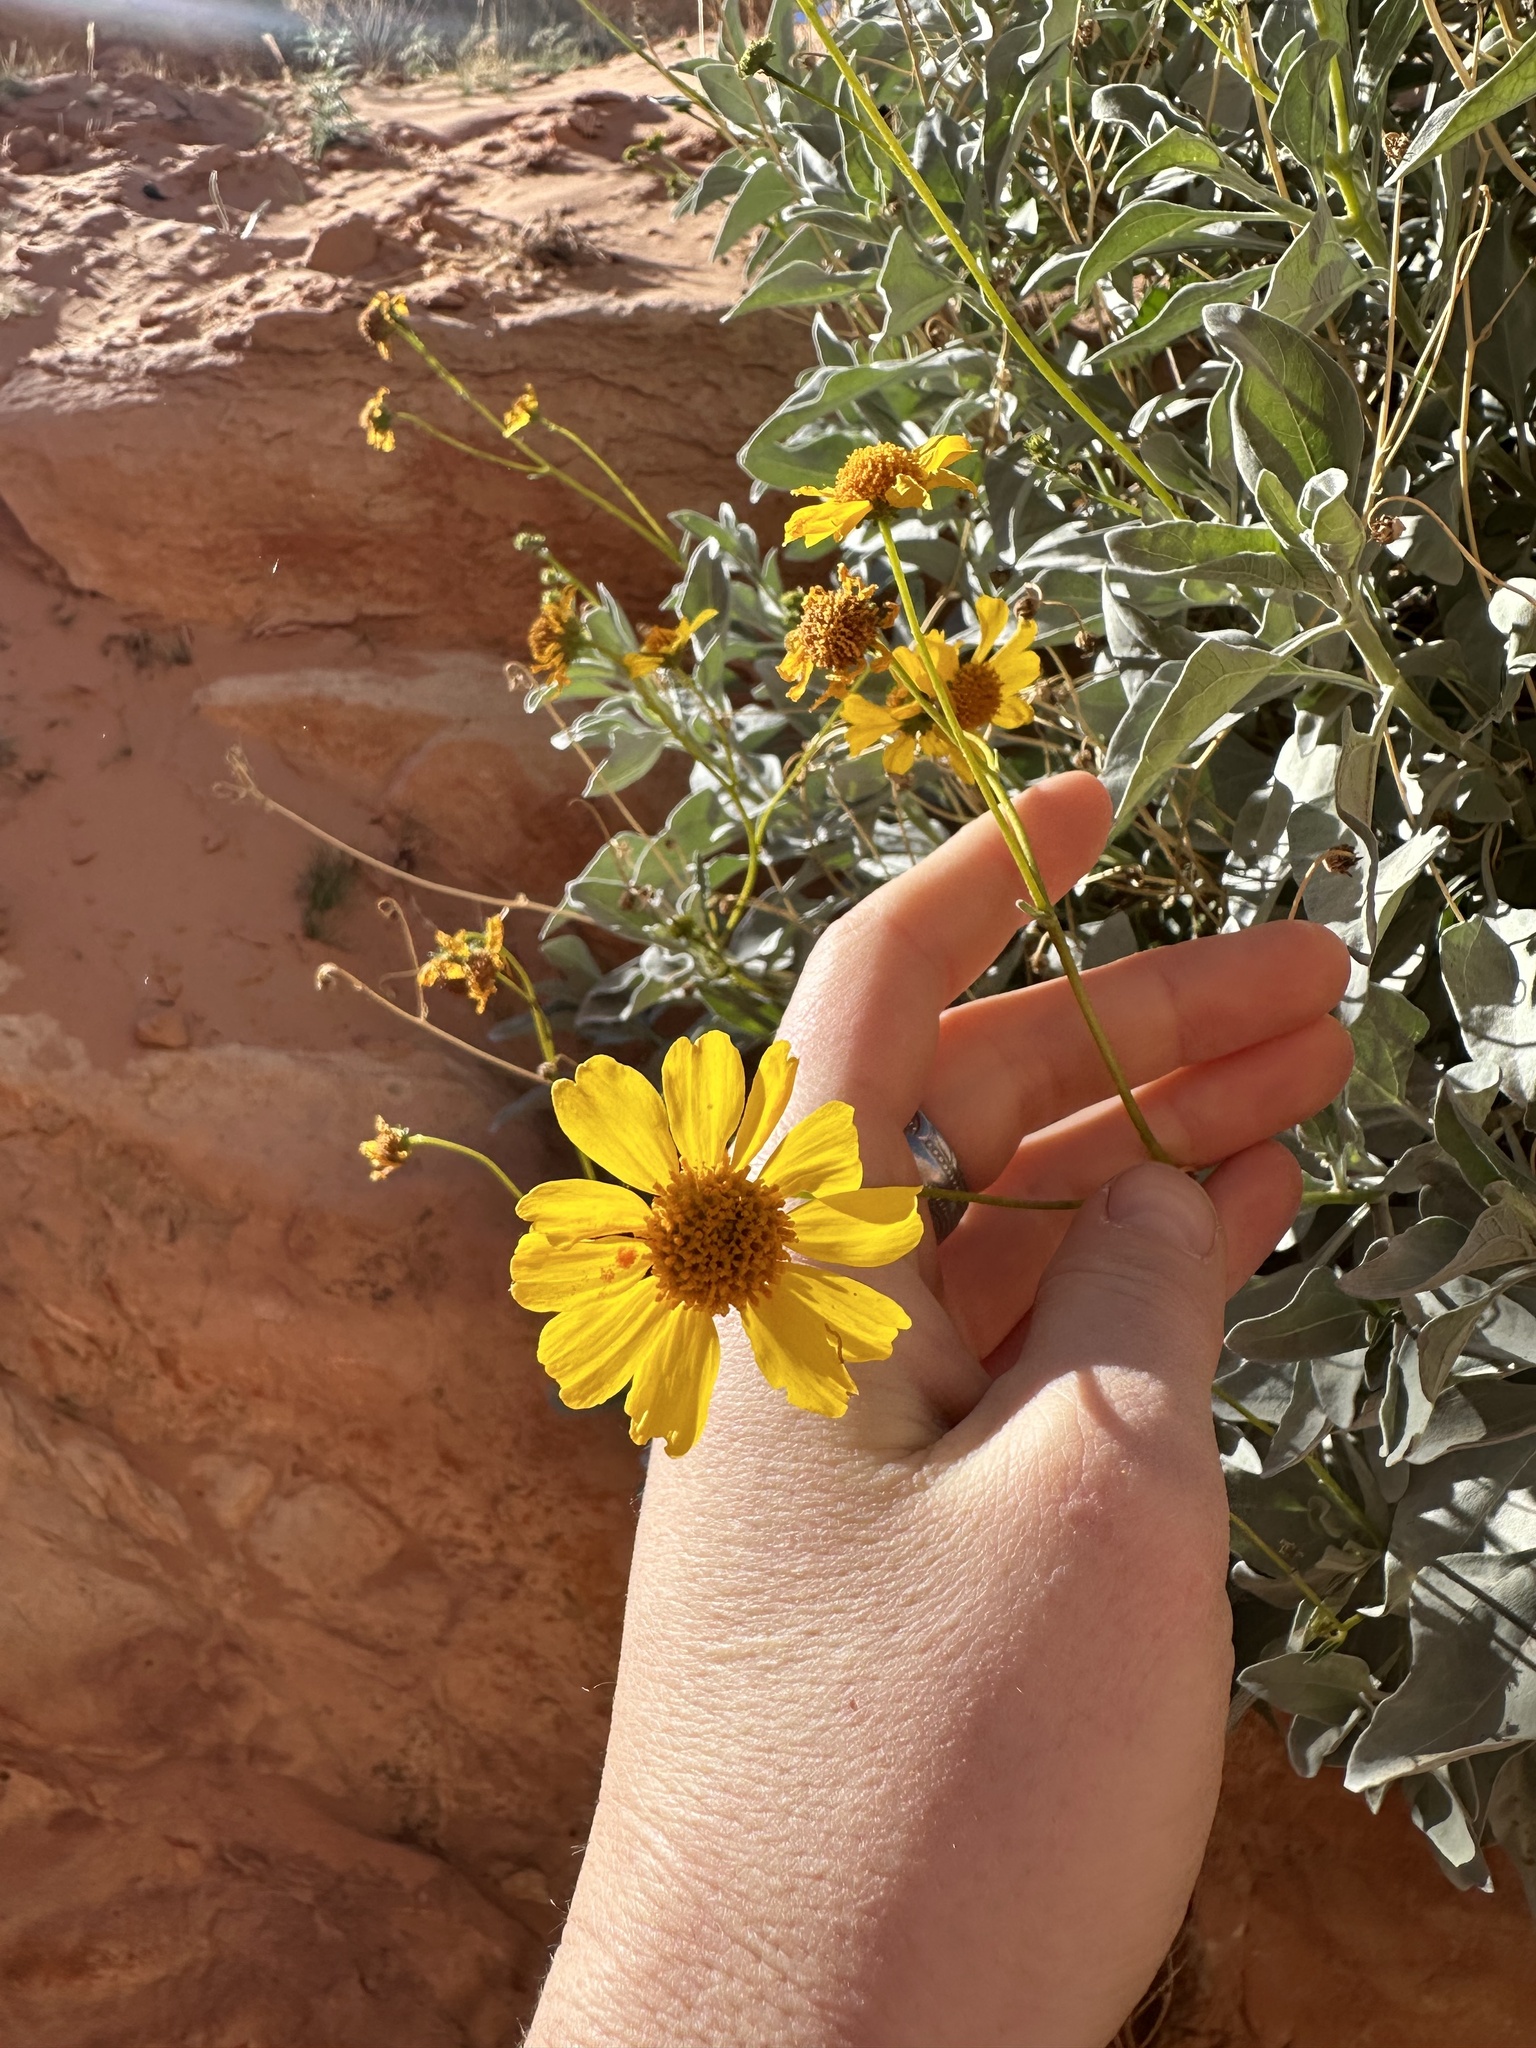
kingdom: Plantae
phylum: Tracheophyta
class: Magnoliopsida
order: Asterales
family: Asteraceae
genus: Encelia
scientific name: Encelia farinosa
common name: Brittlebush
